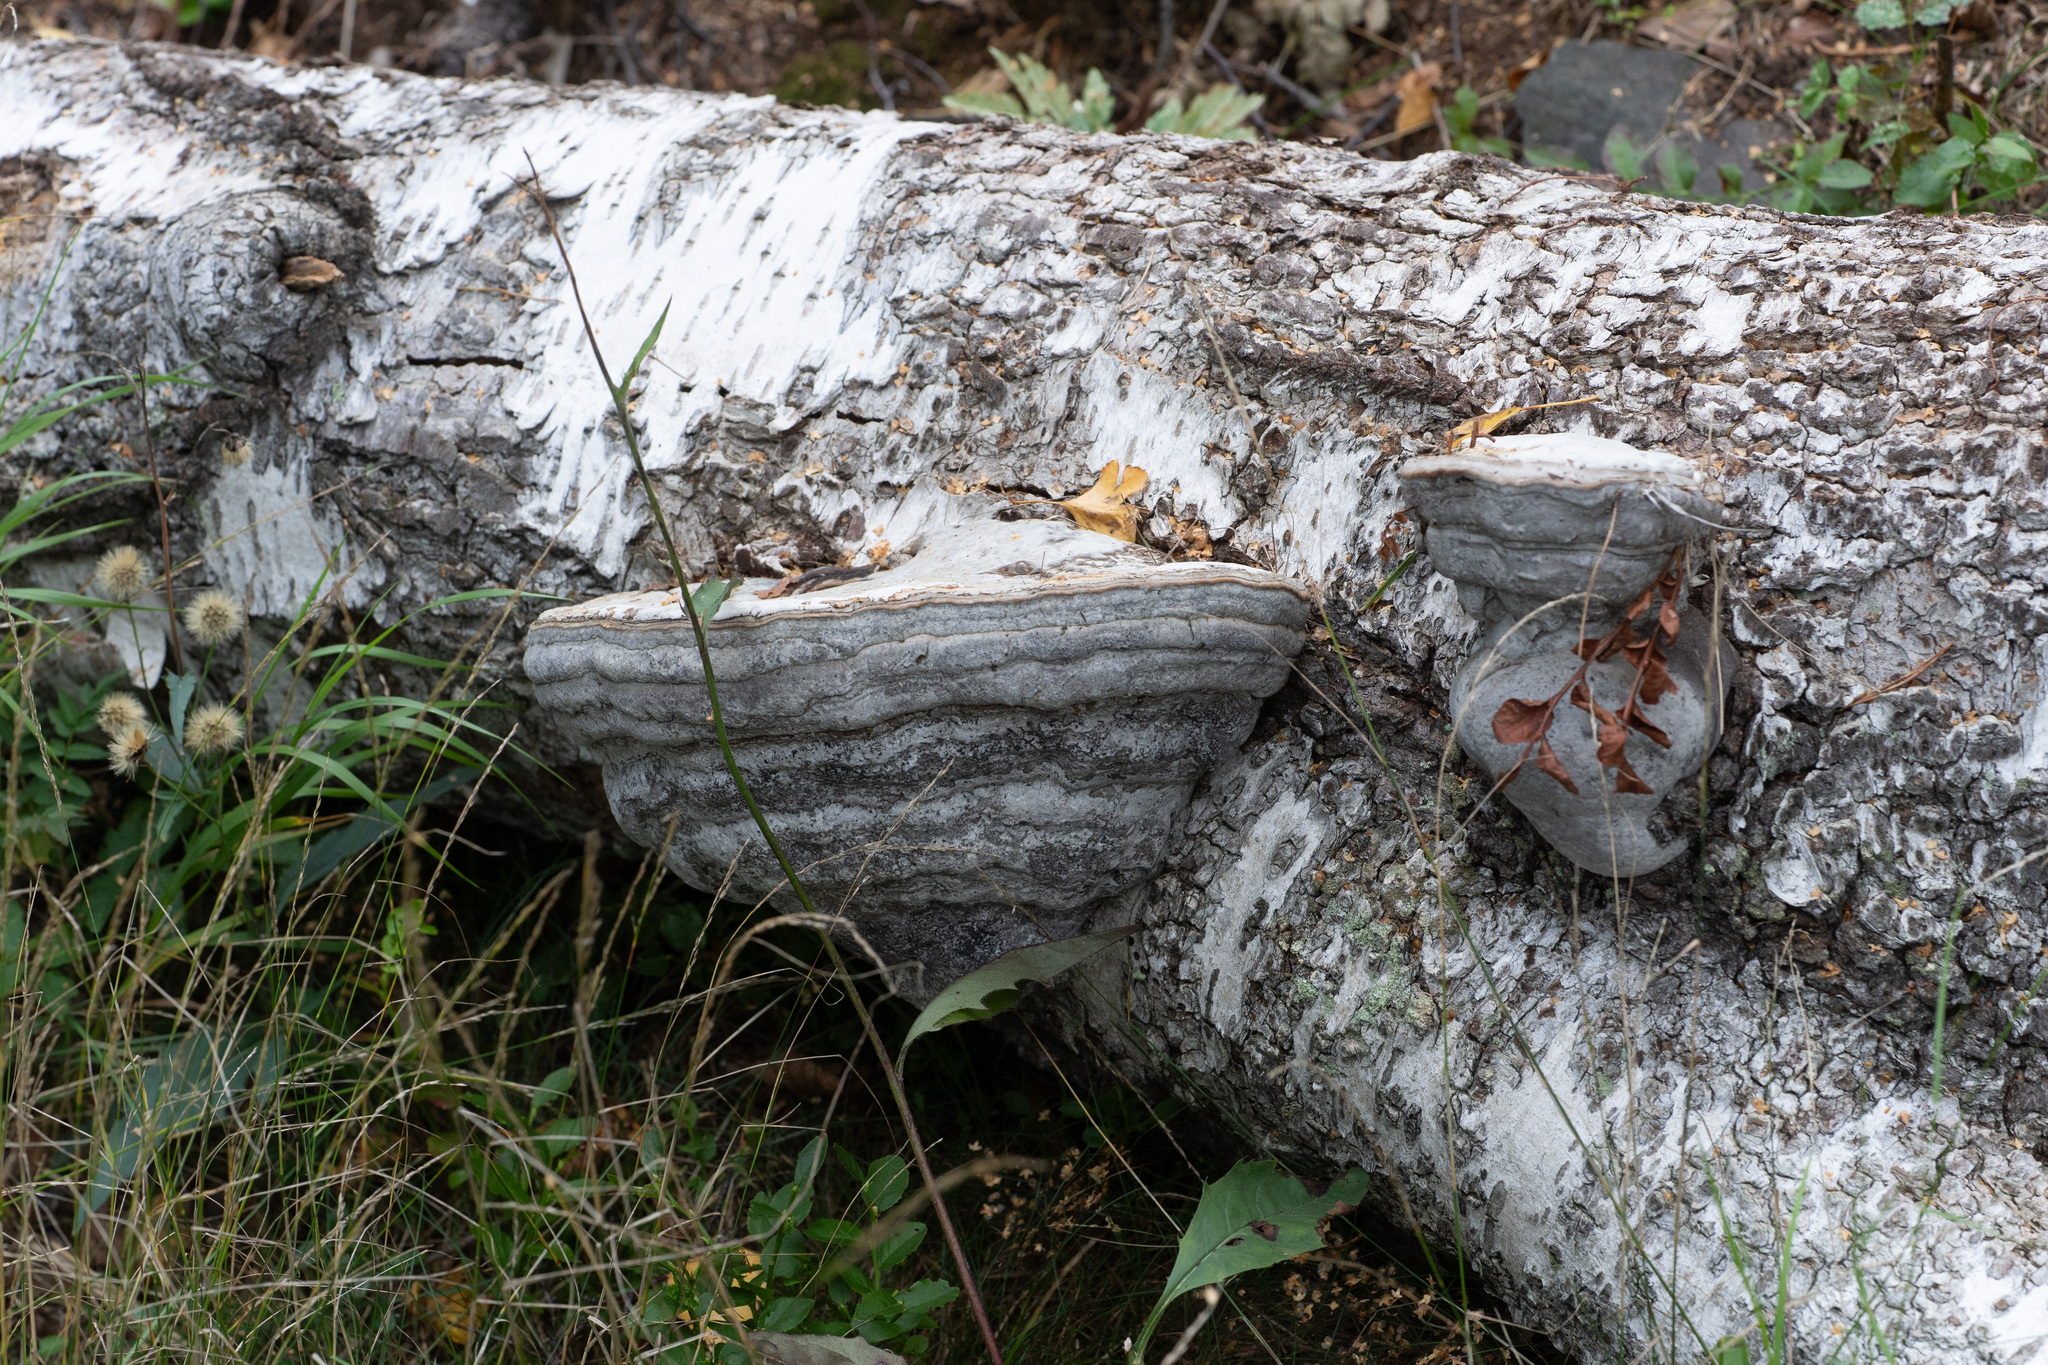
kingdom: Fungi
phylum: Basidiomycota
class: Agaricomycetes
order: Polyporales
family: Polyporaceae
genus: Fomes
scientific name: Fomes fomentarius
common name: Hoof fungus
